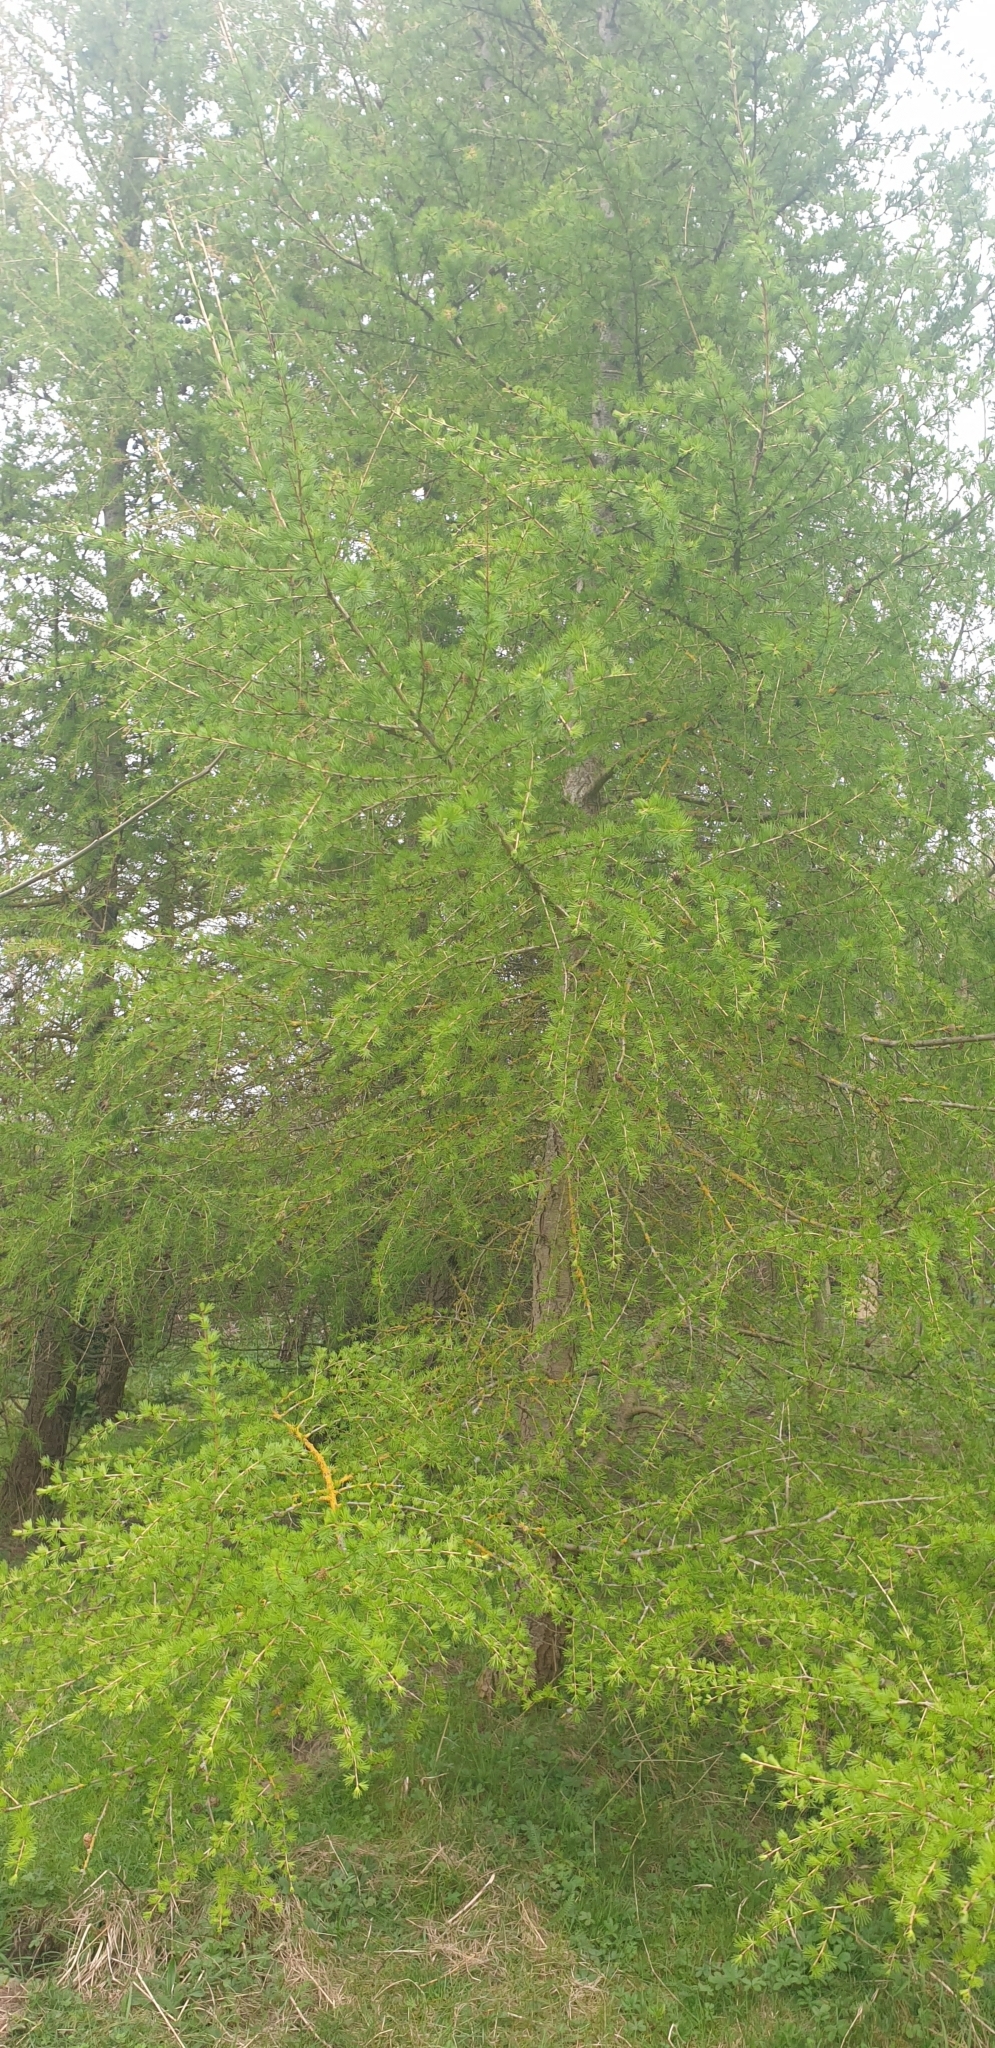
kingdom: Plantae
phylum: Tracheophyta
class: Pinopsida
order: Pinales
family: Pinaceae
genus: Larix
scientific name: Larix decidua
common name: European larch
